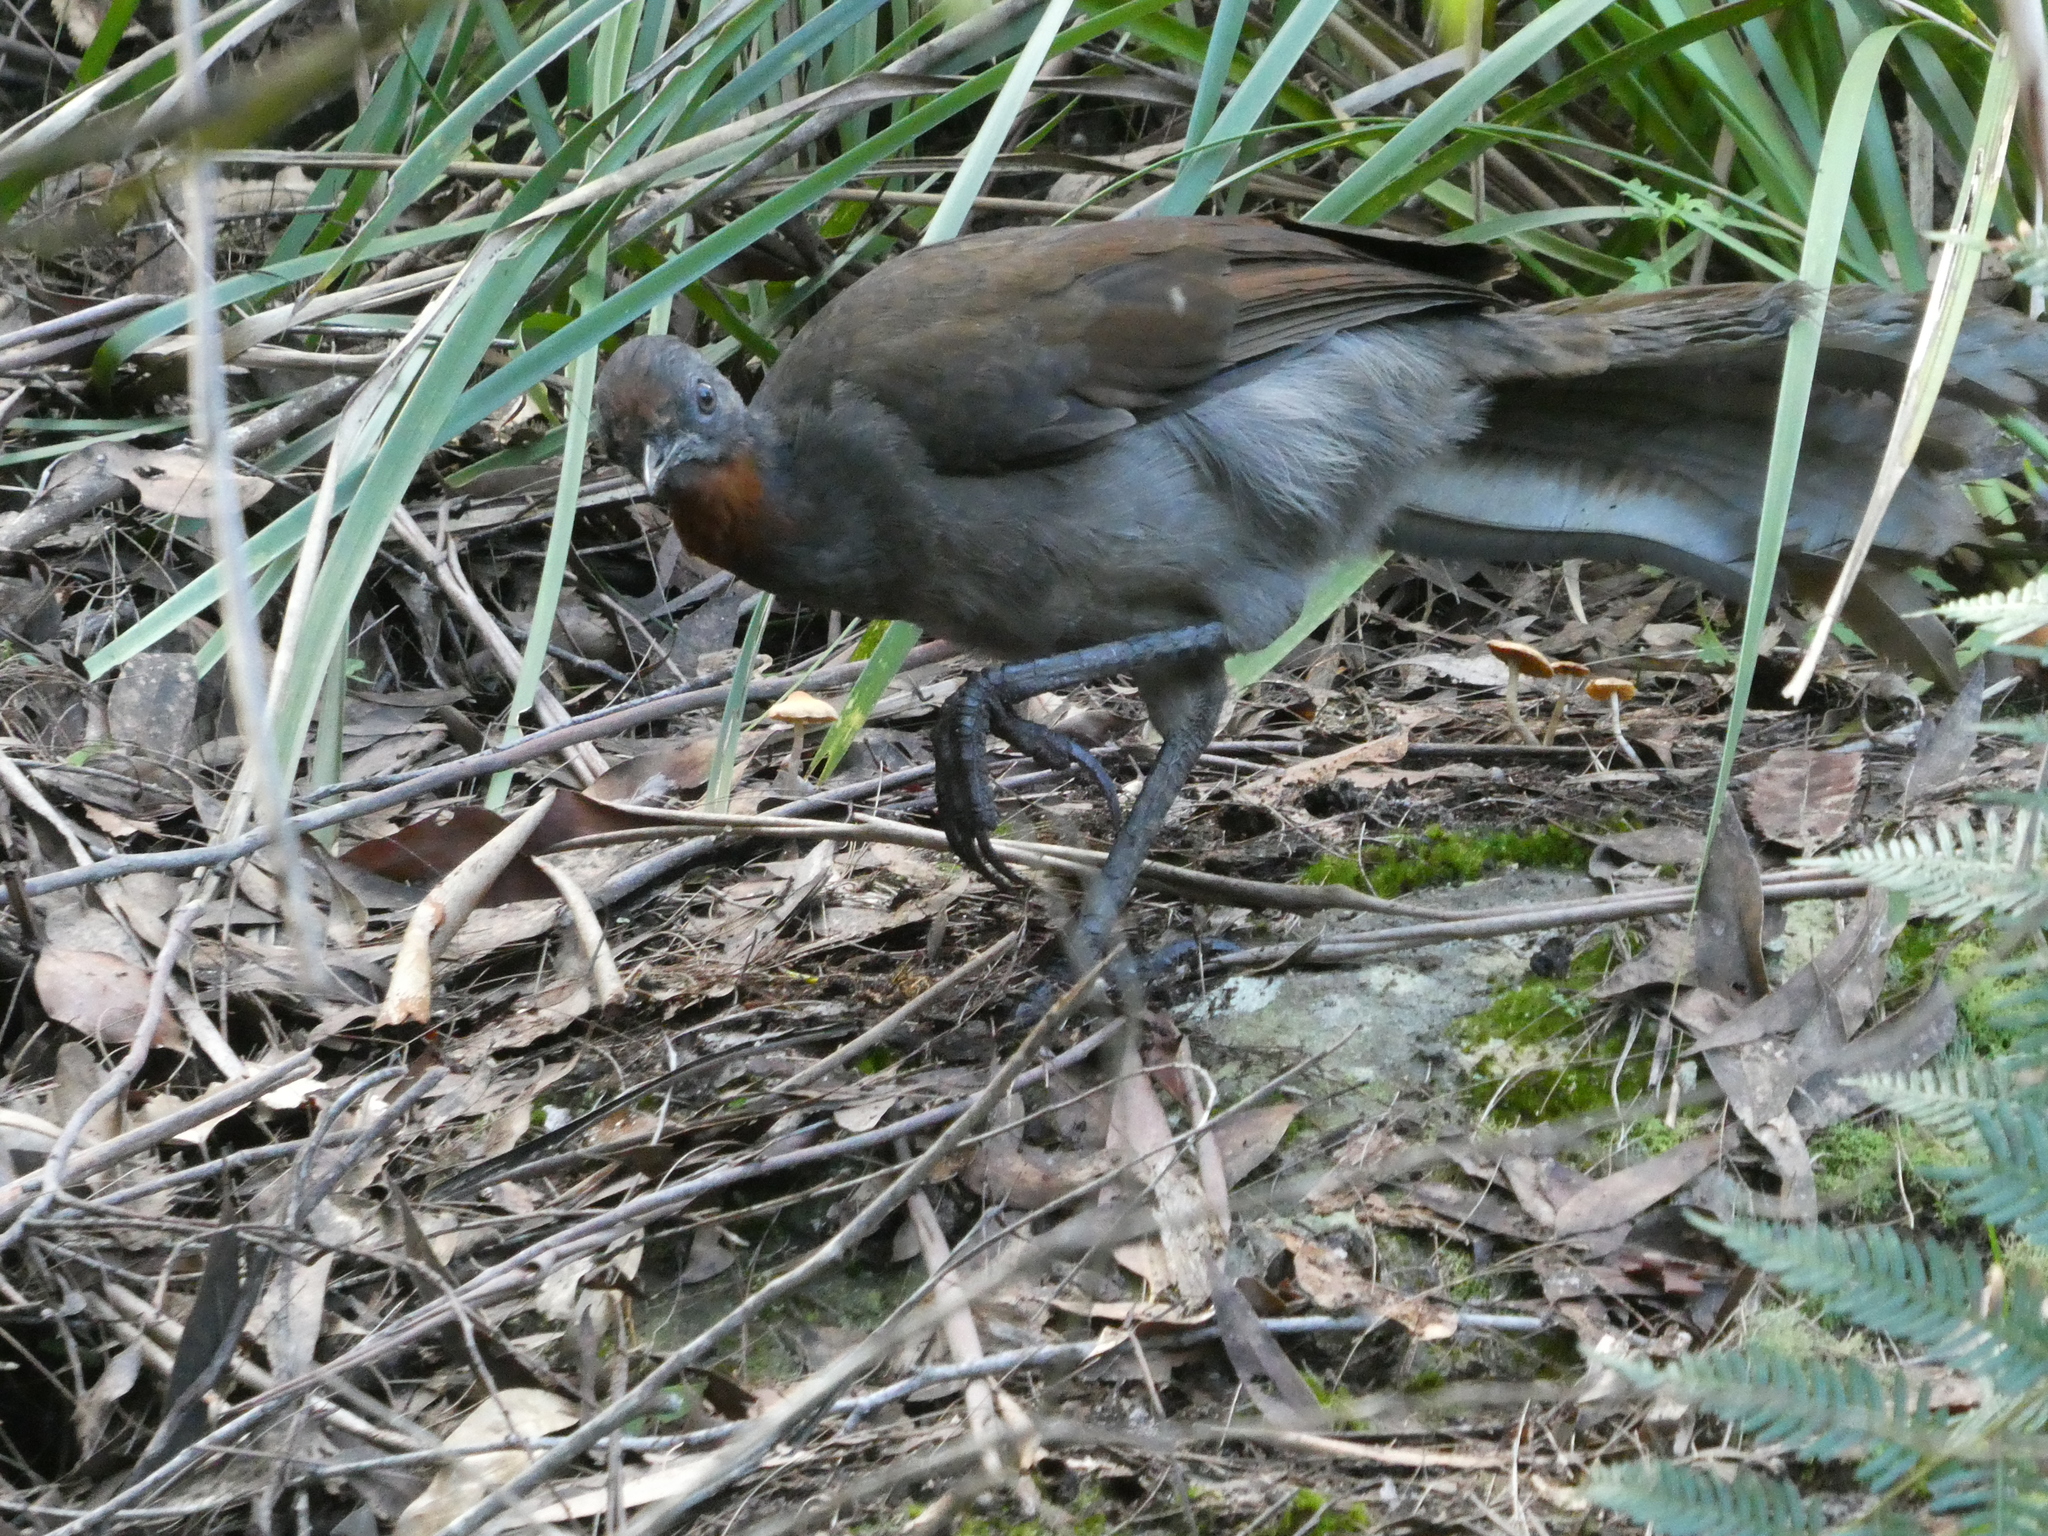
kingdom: Animalia
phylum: Chordata
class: Aves
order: Passeriformes
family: Menuridae
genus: Menura
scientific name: Menura novaehollandiae
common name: Superb lyrebird
